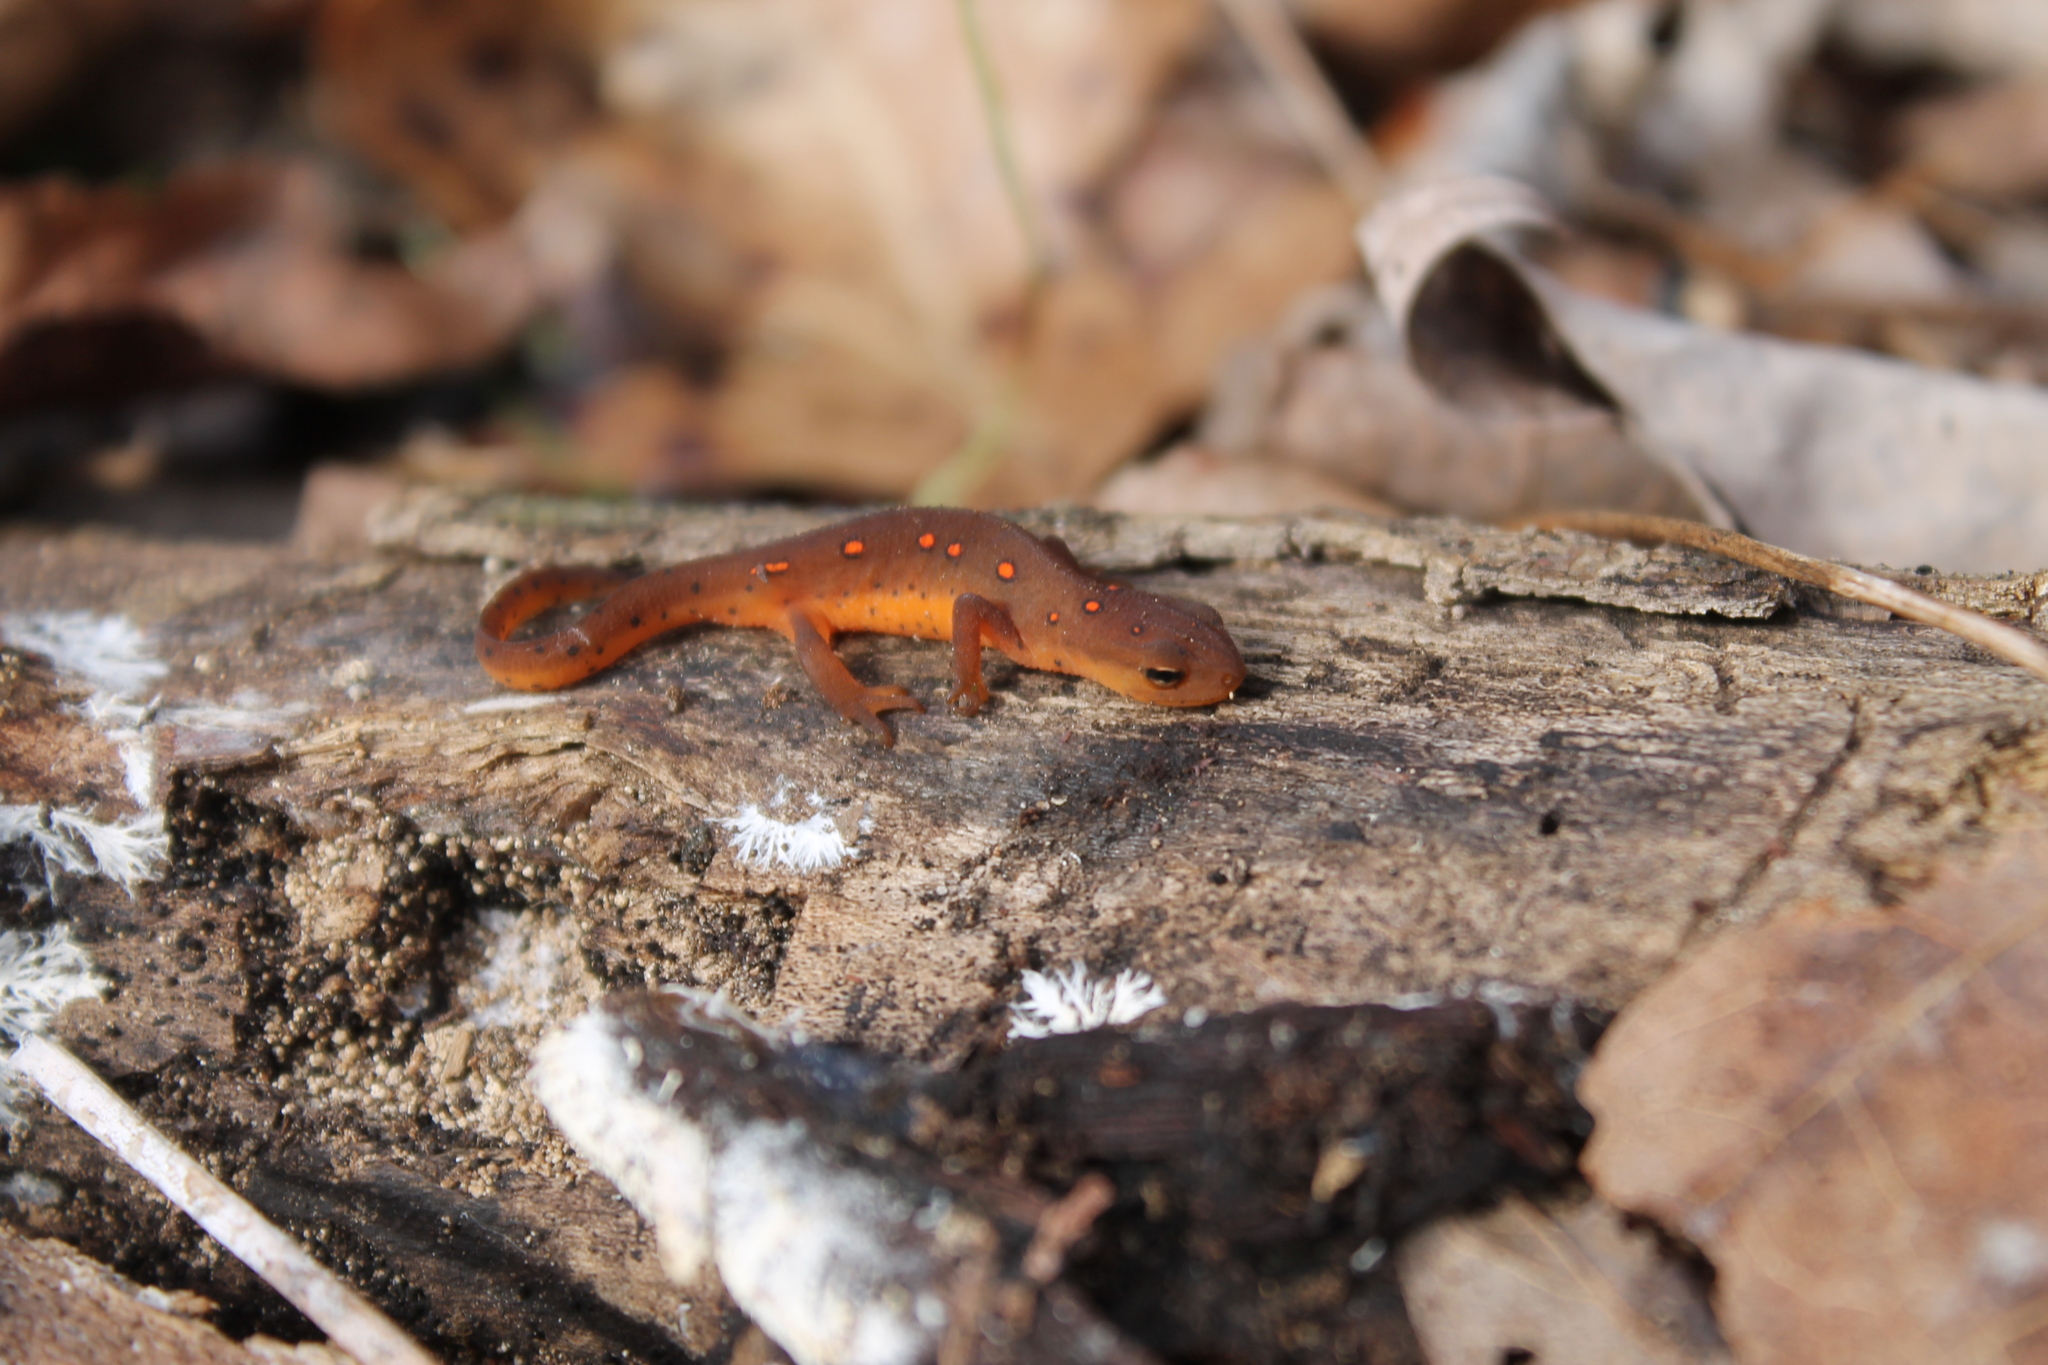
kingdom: Animalia
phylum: Chordata
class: Amphibia
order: Caudata
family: Salamandridae
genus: Notophthalmus
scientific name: Notophthalmus viridescens
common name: Eastern newt
